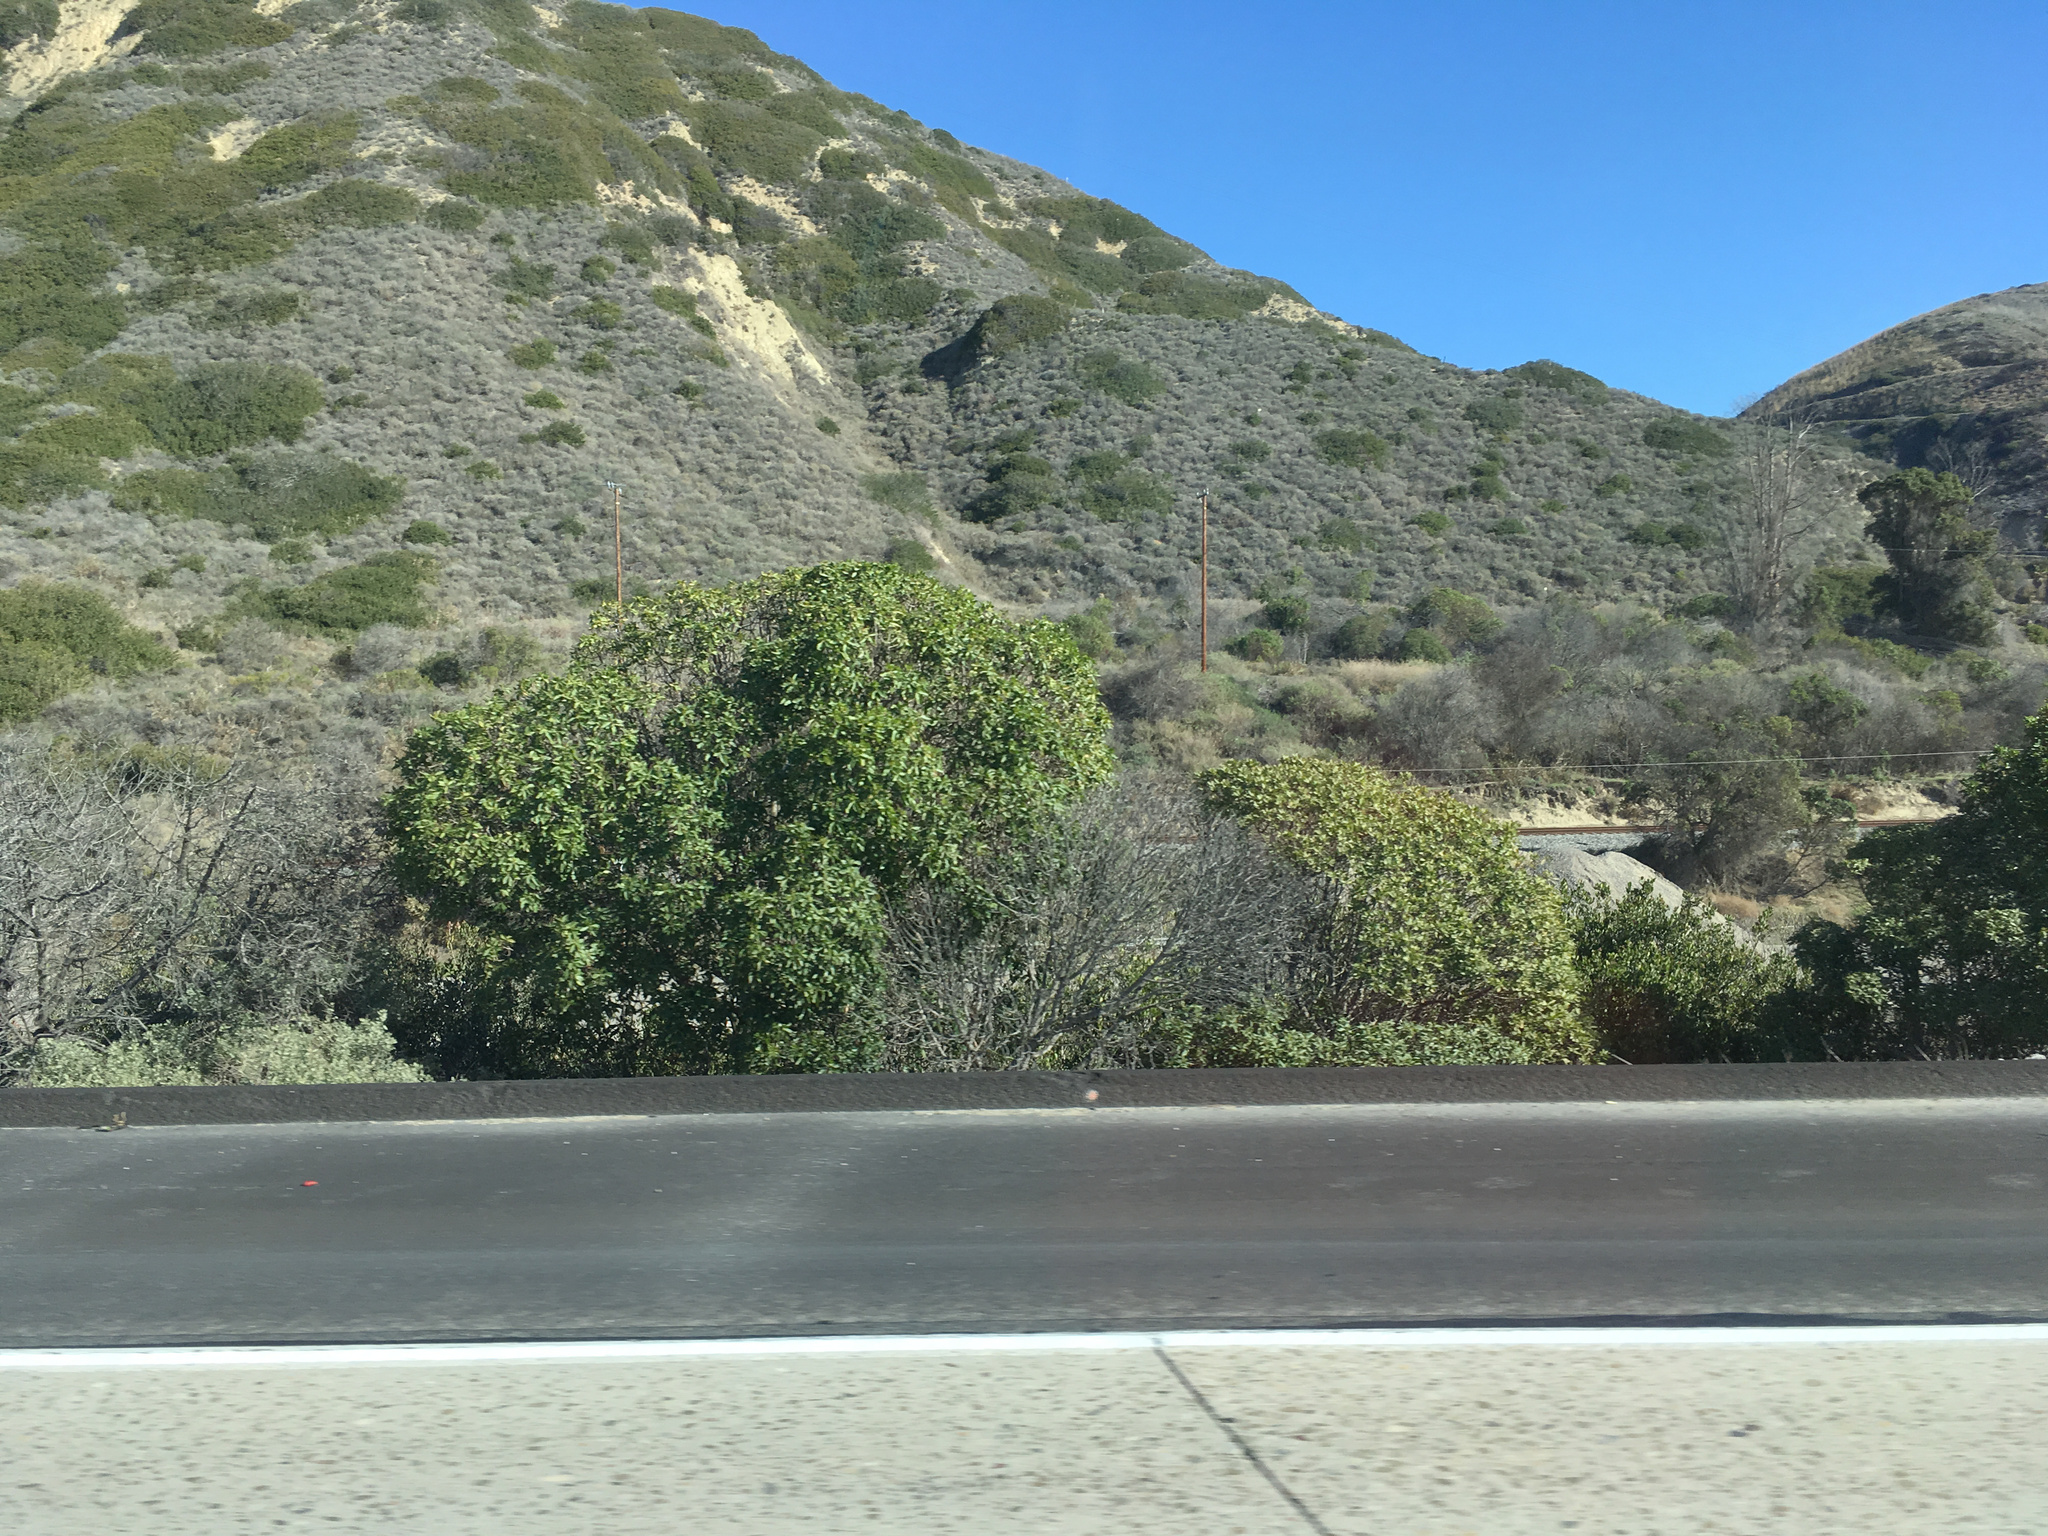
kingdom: Plantae
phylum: Tracheophyta
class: Magnoliopsida
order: Lamiales
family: Scrophulariaceae
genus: Myoporum
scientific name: Myoporum laetum
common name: Ngaio tree
